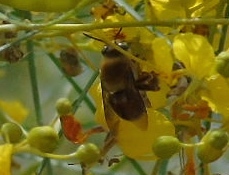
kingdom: Animalia
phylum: Arthropoda
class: Insecta
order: Hymenoptera
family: Apidae
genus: Centris
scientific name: Centris
